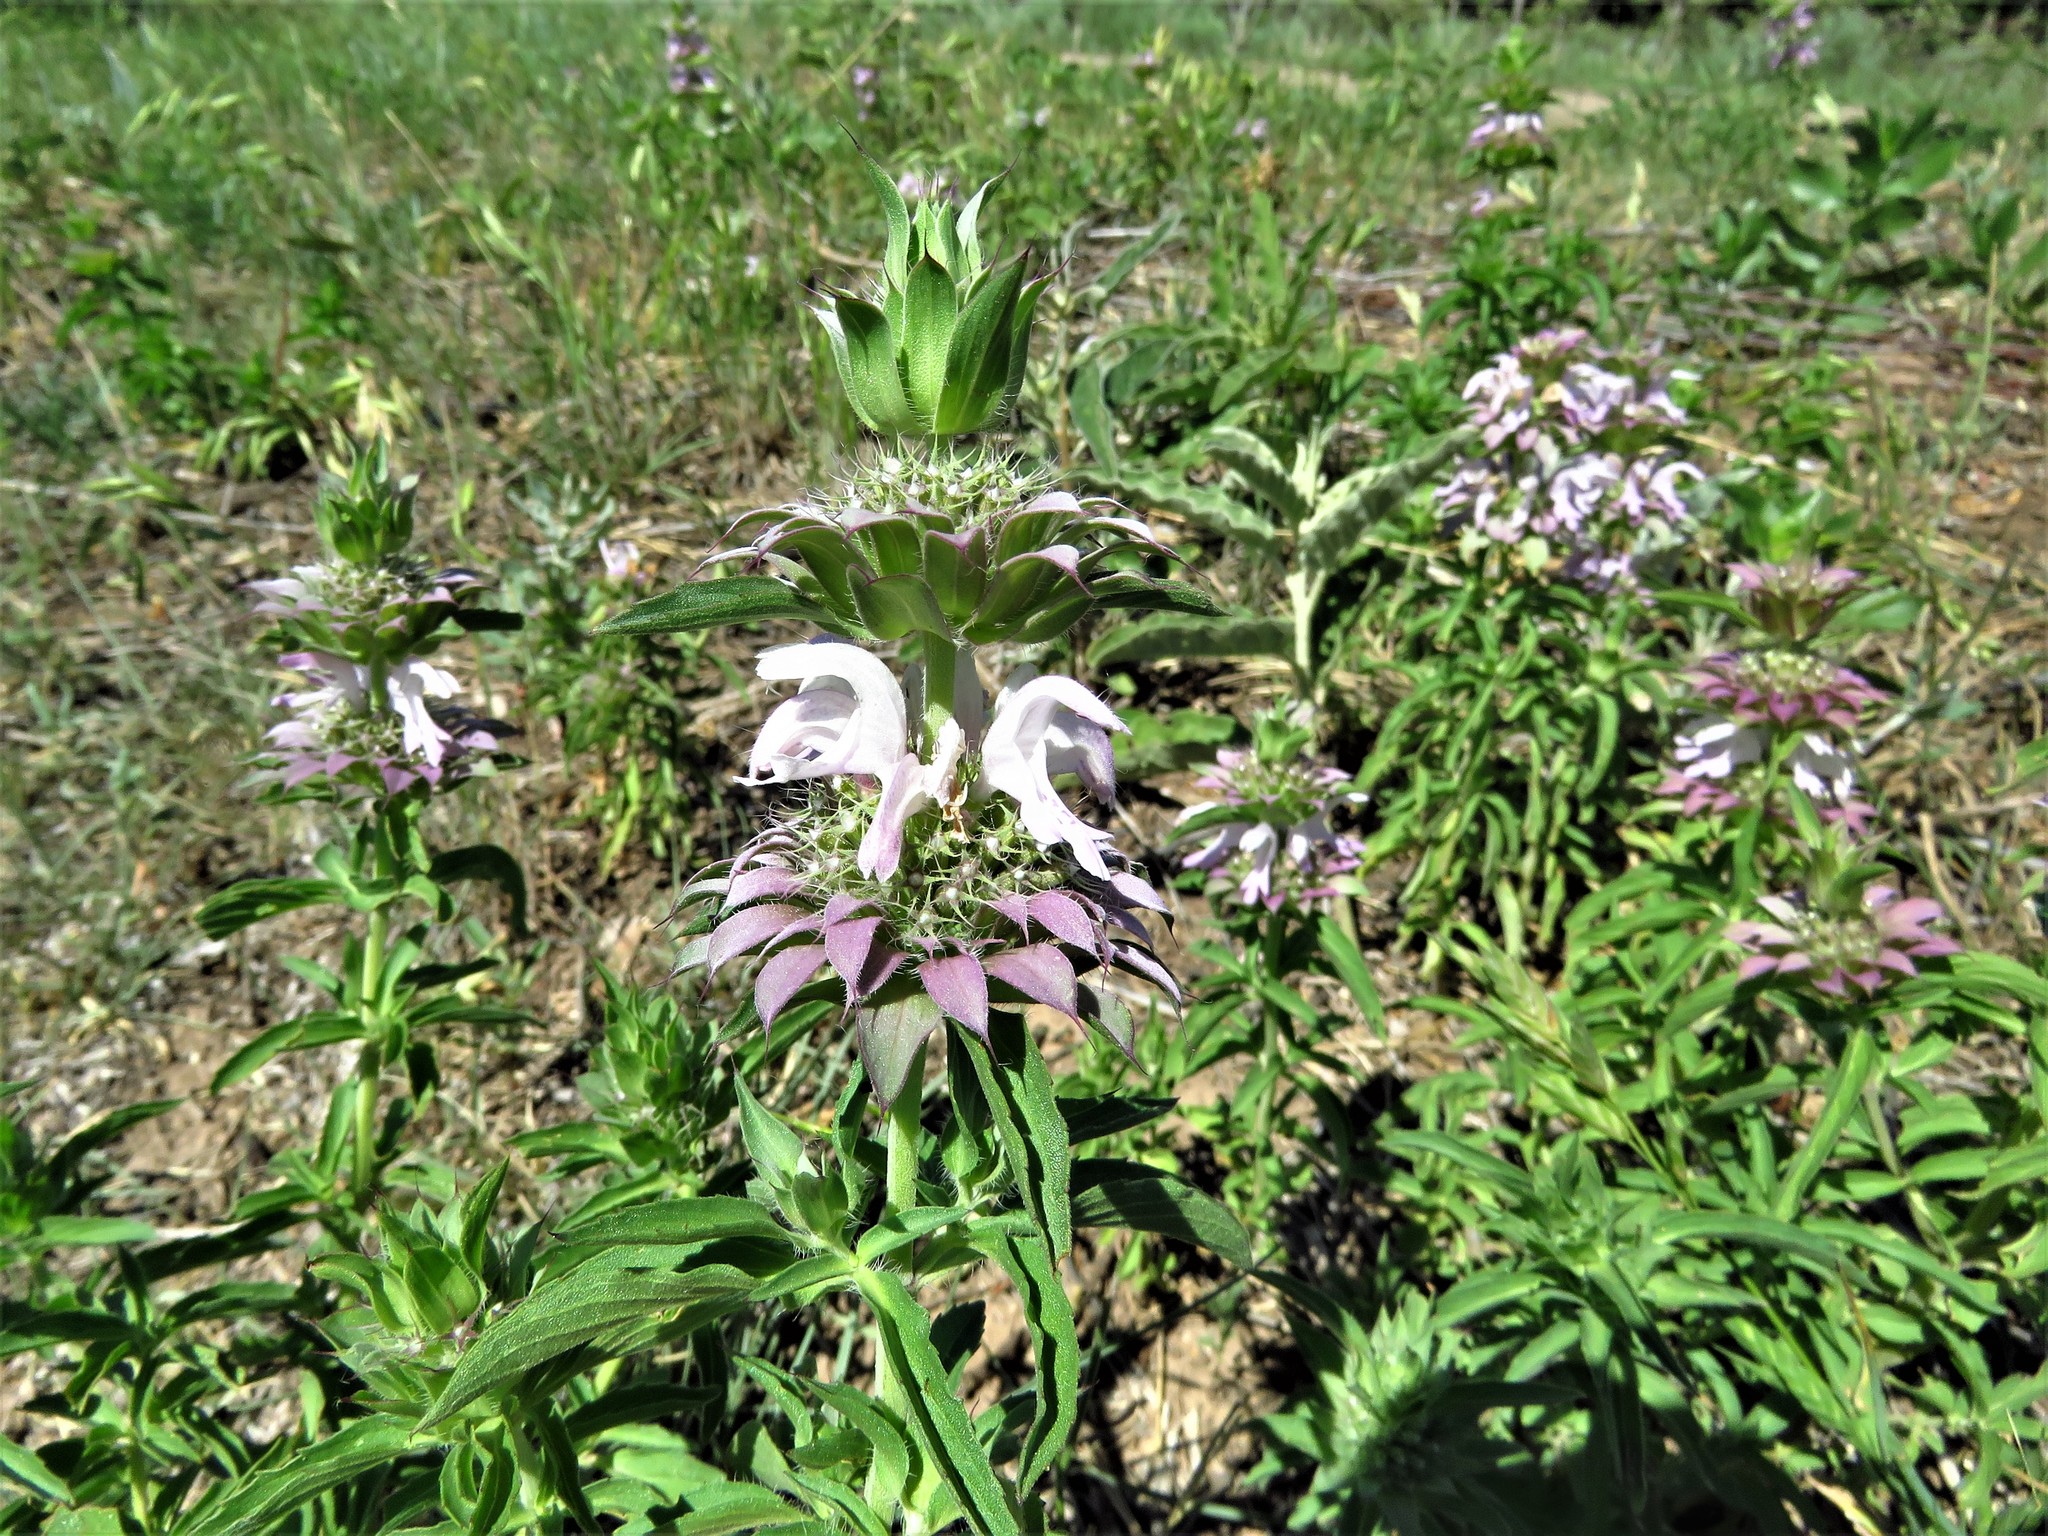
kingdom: Plantae
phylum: Tracheophyta
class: Magnoliopsida
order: Lamiales
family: Lamiaceae
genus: Monarda
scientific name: Monarda citriodora
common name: Lemon beebalm
